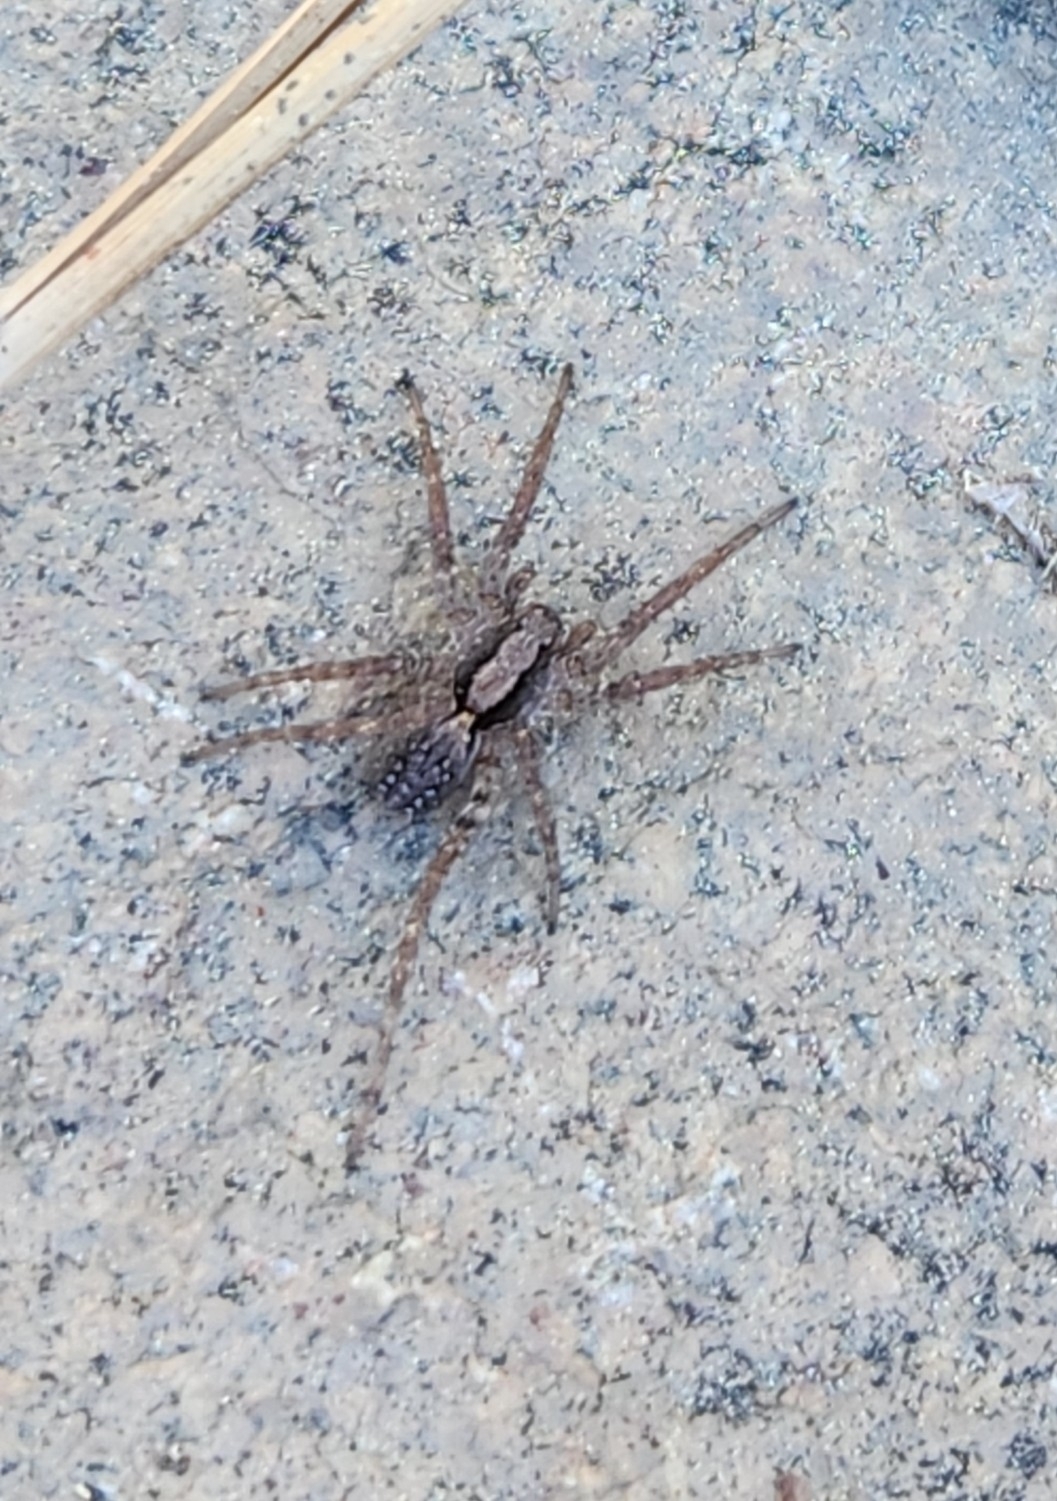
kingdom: Animalia
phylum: Arthropoda
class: Arachnida
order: Araneae
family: Lycosidae
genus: Alopecosa
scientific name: Alopecosa kochi
